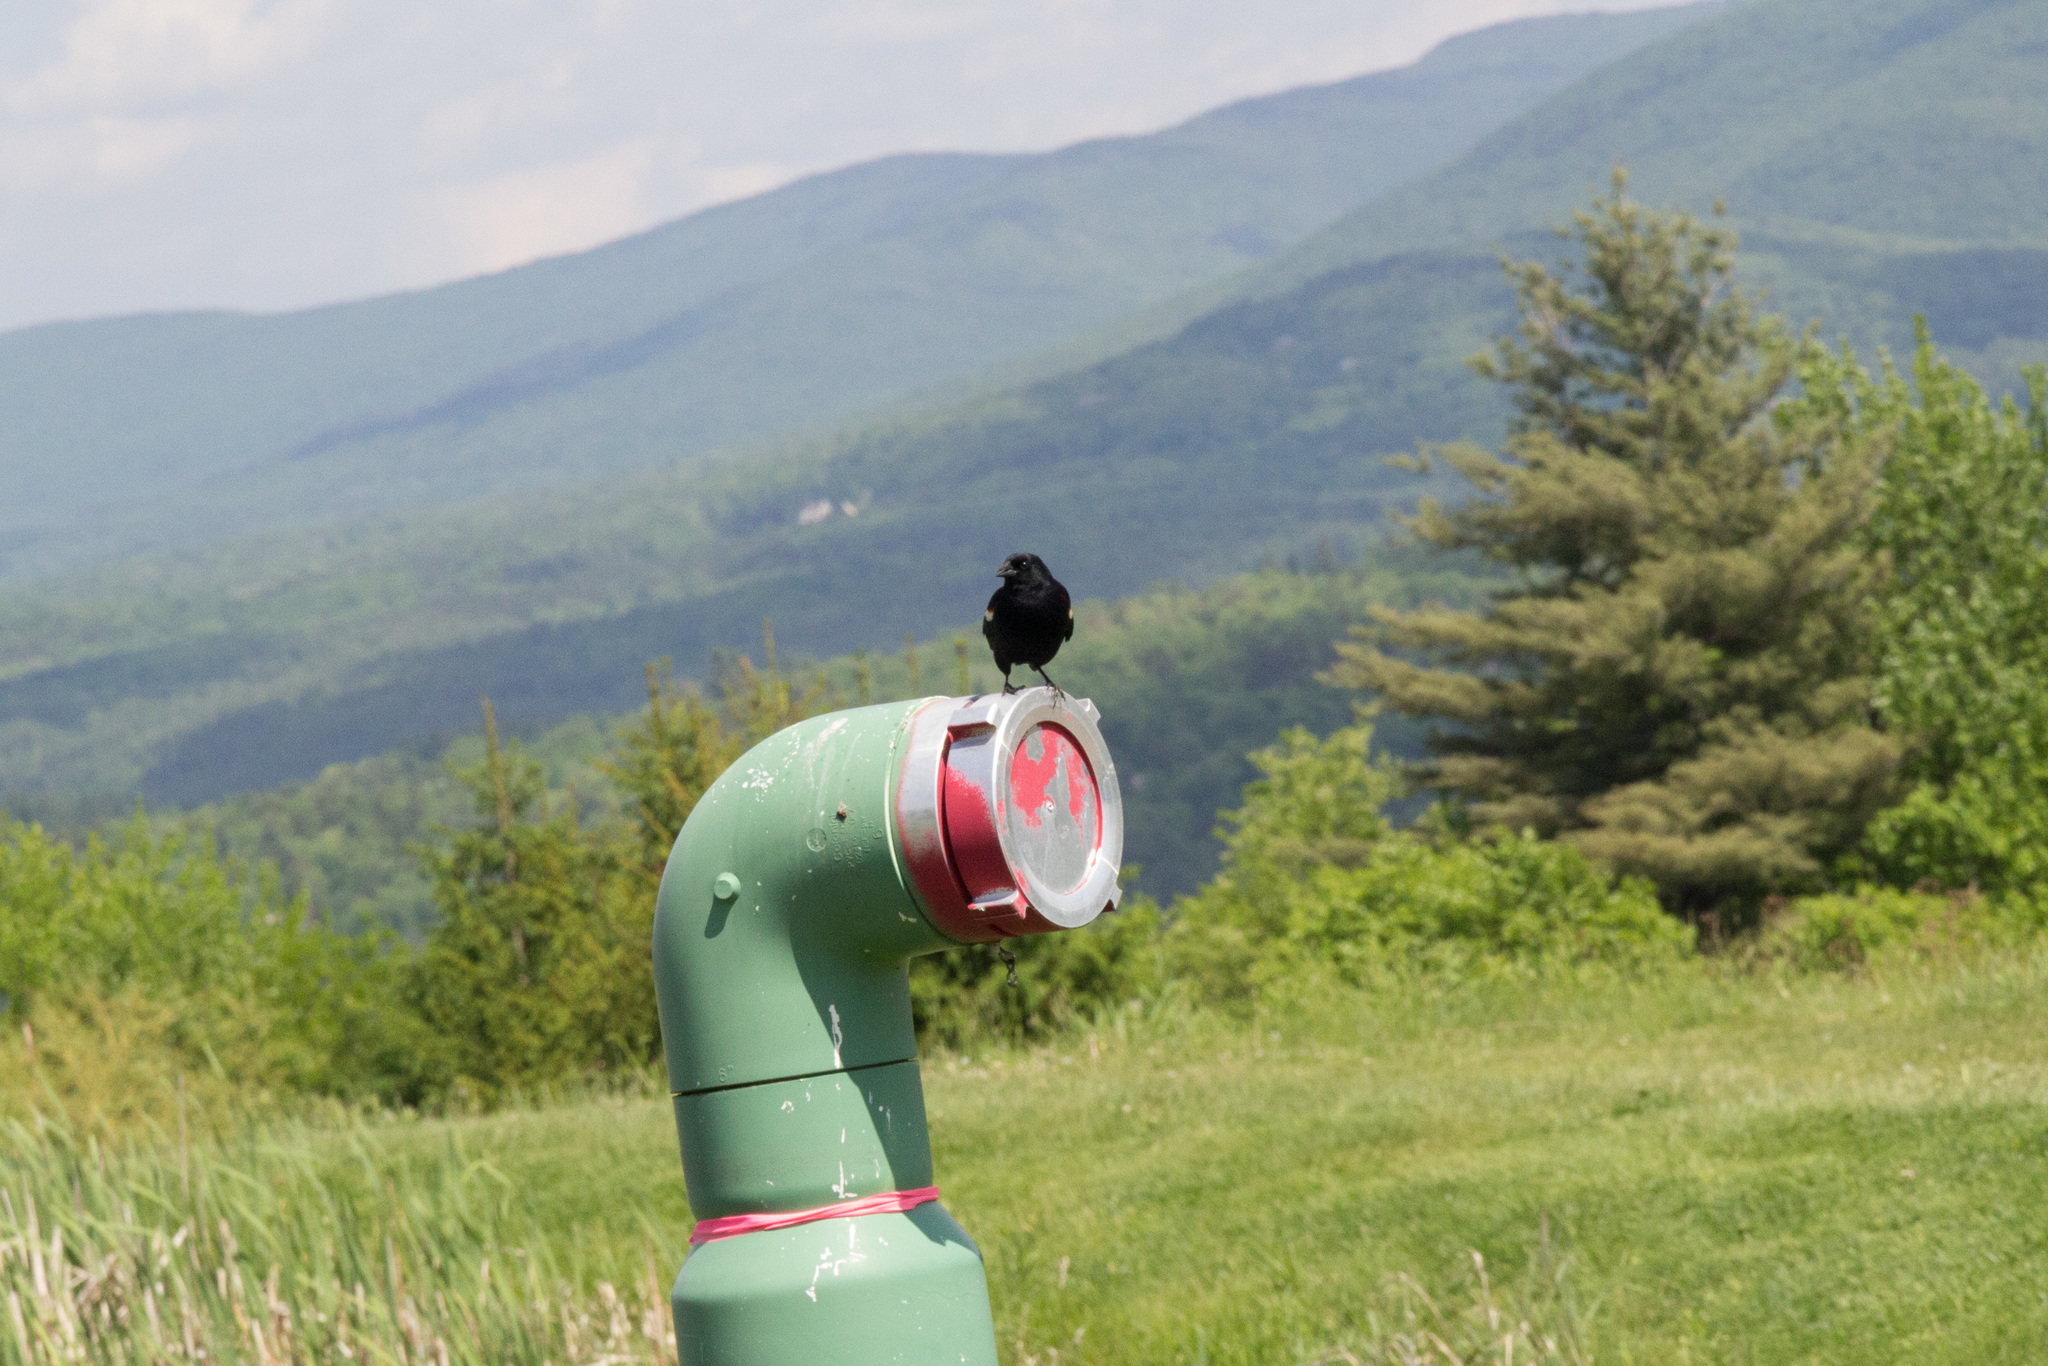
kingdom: Animalia
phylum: Chordata
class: Aves
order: Passeriformes
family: Icteridae
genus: Agelaius
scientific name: Agelaius phoeniceus
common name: Red-winged blackbird
